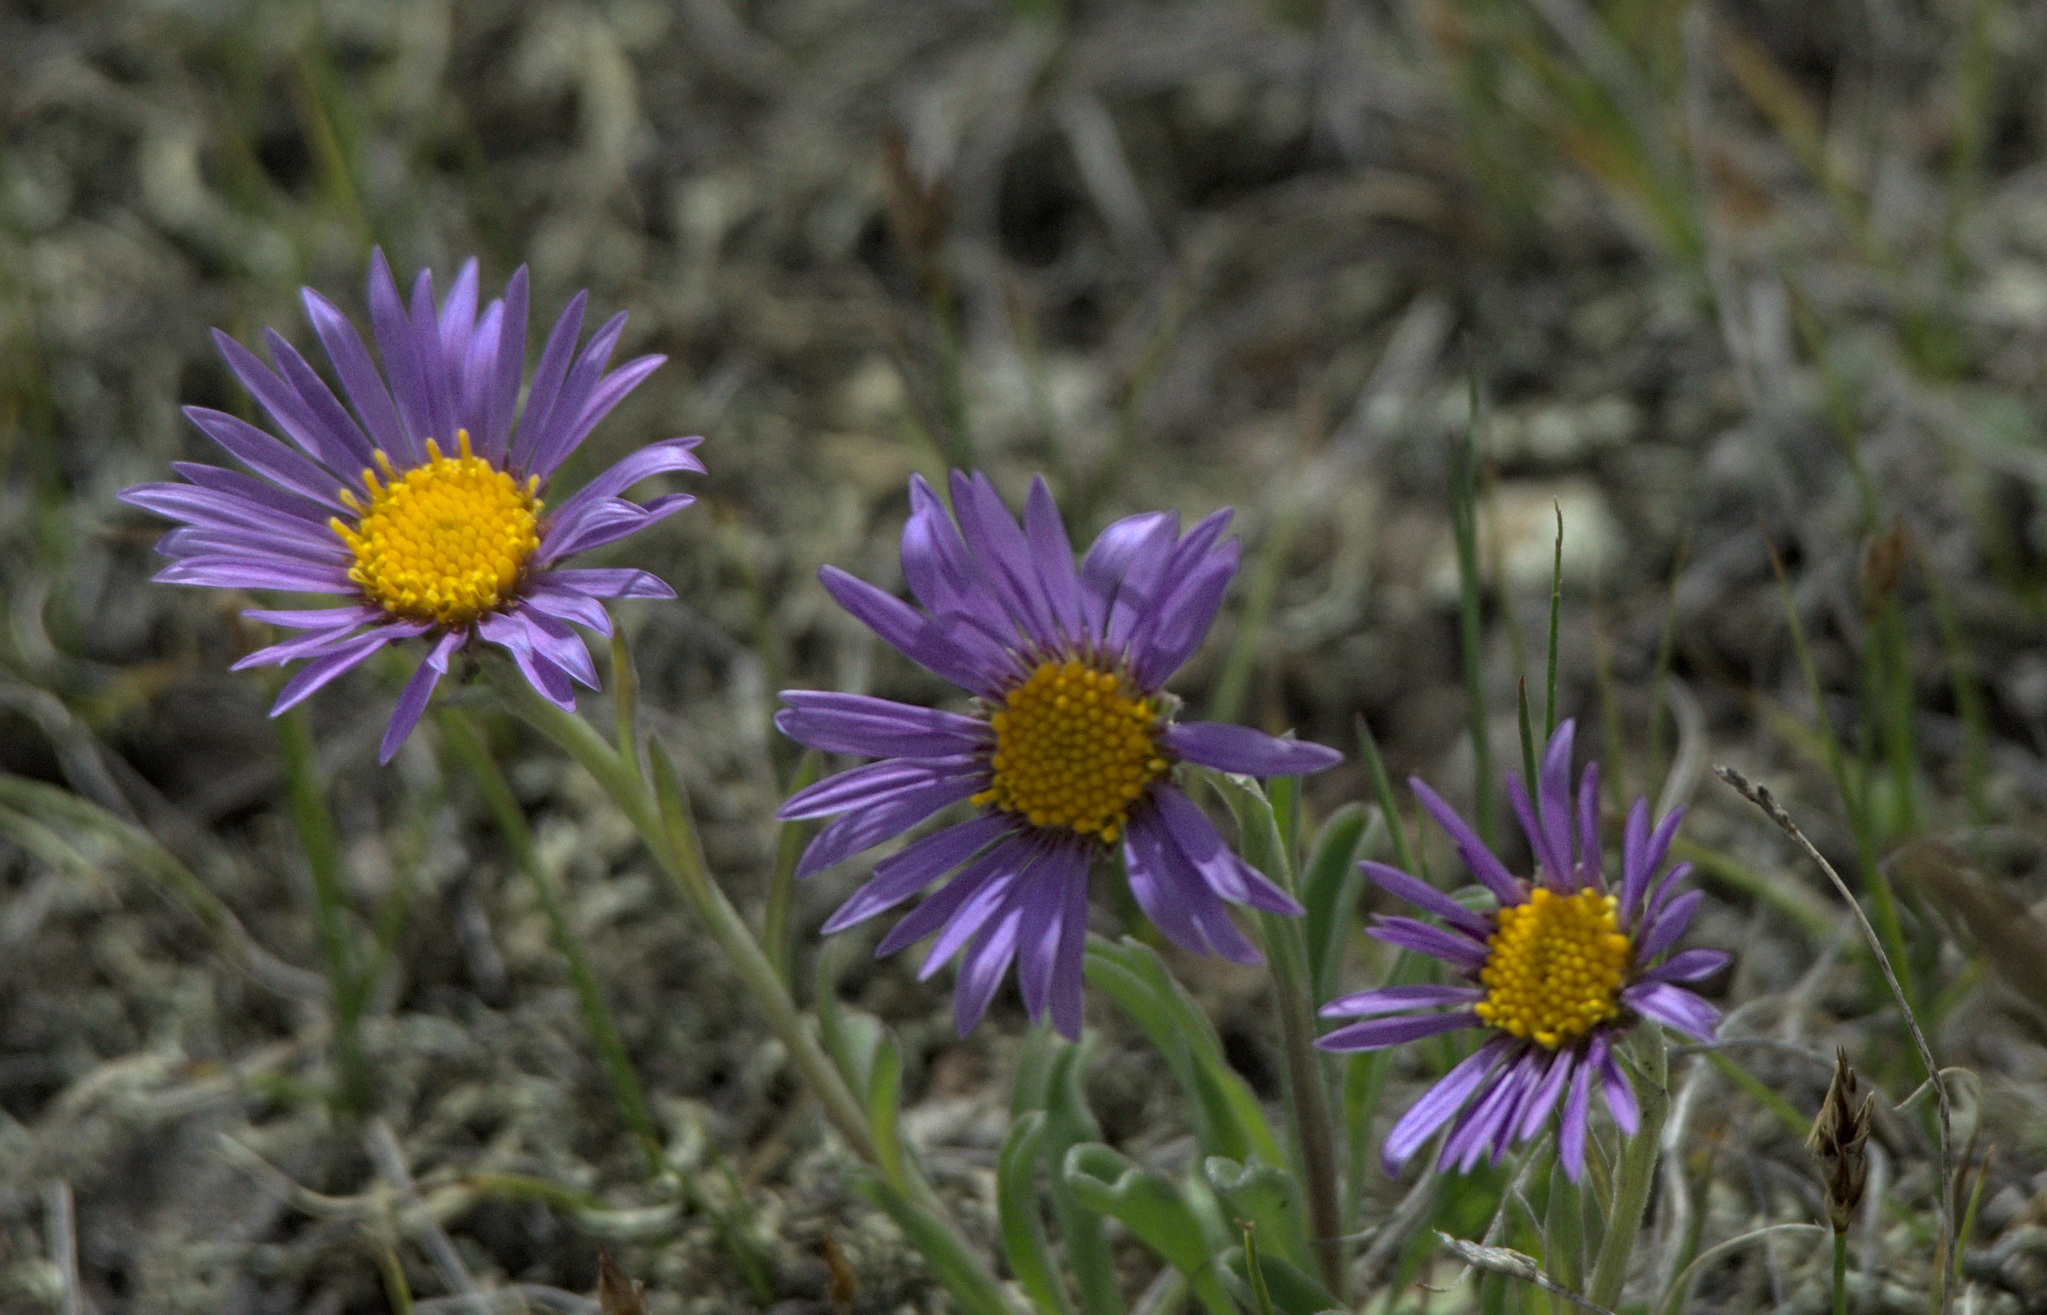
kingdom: Plantae
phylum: Tracheophyta
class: Magnoliopsida
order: Asterales
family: Asteraceae
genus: Aster
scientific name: Aster alpinus
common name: Alpine aster
